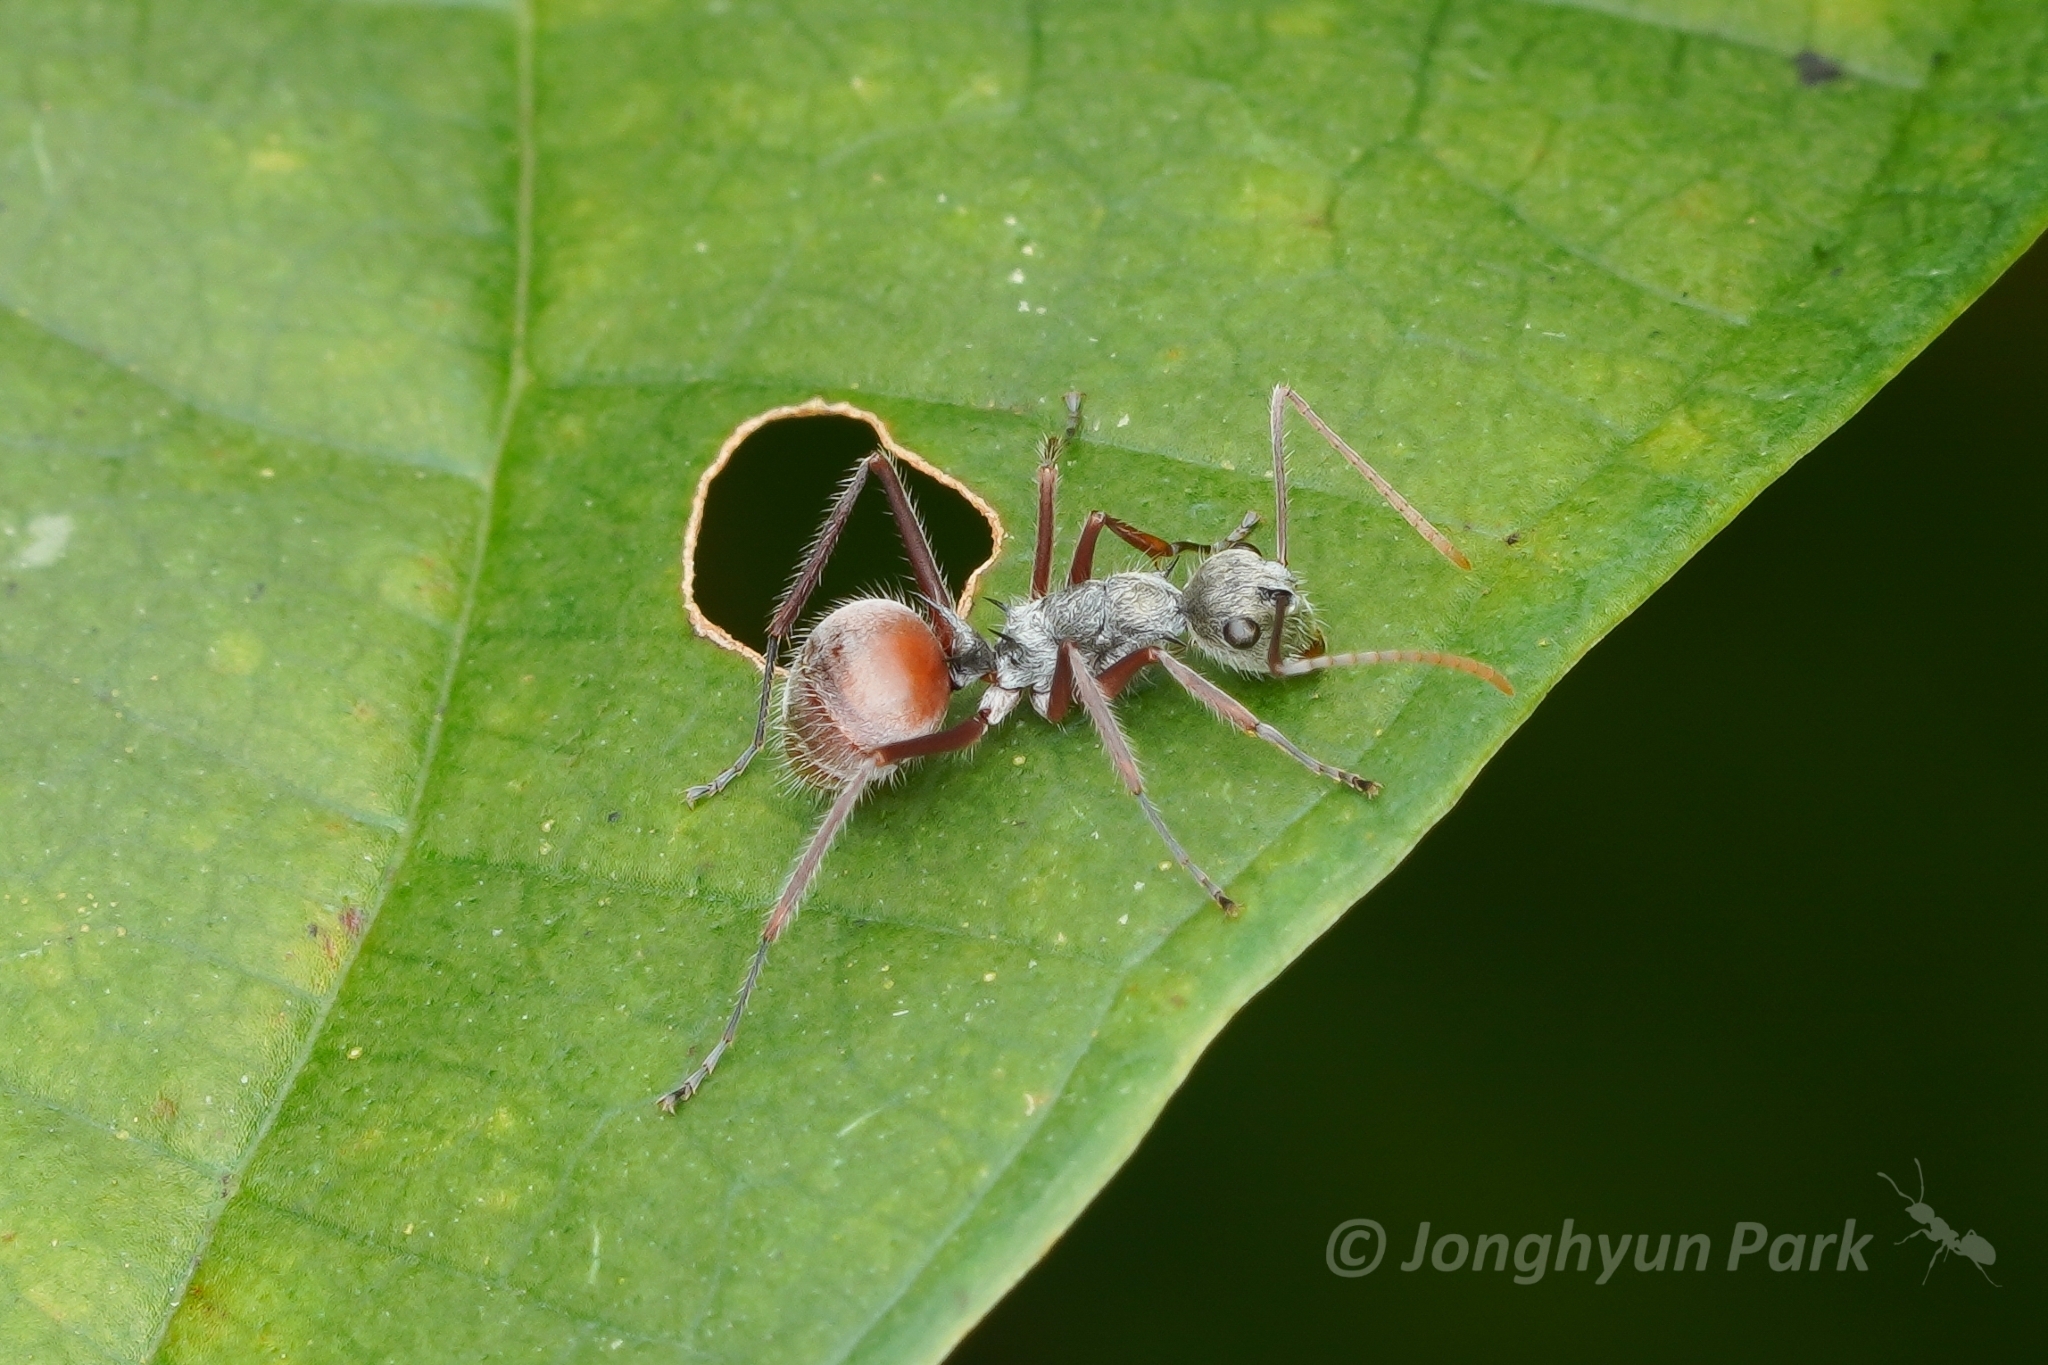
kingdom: Animalia
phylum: Arthropoda
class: Insecta
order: Hymenoptera
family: Formicidae
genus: Polyrhachis
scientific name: Polyrhachis bicolor
